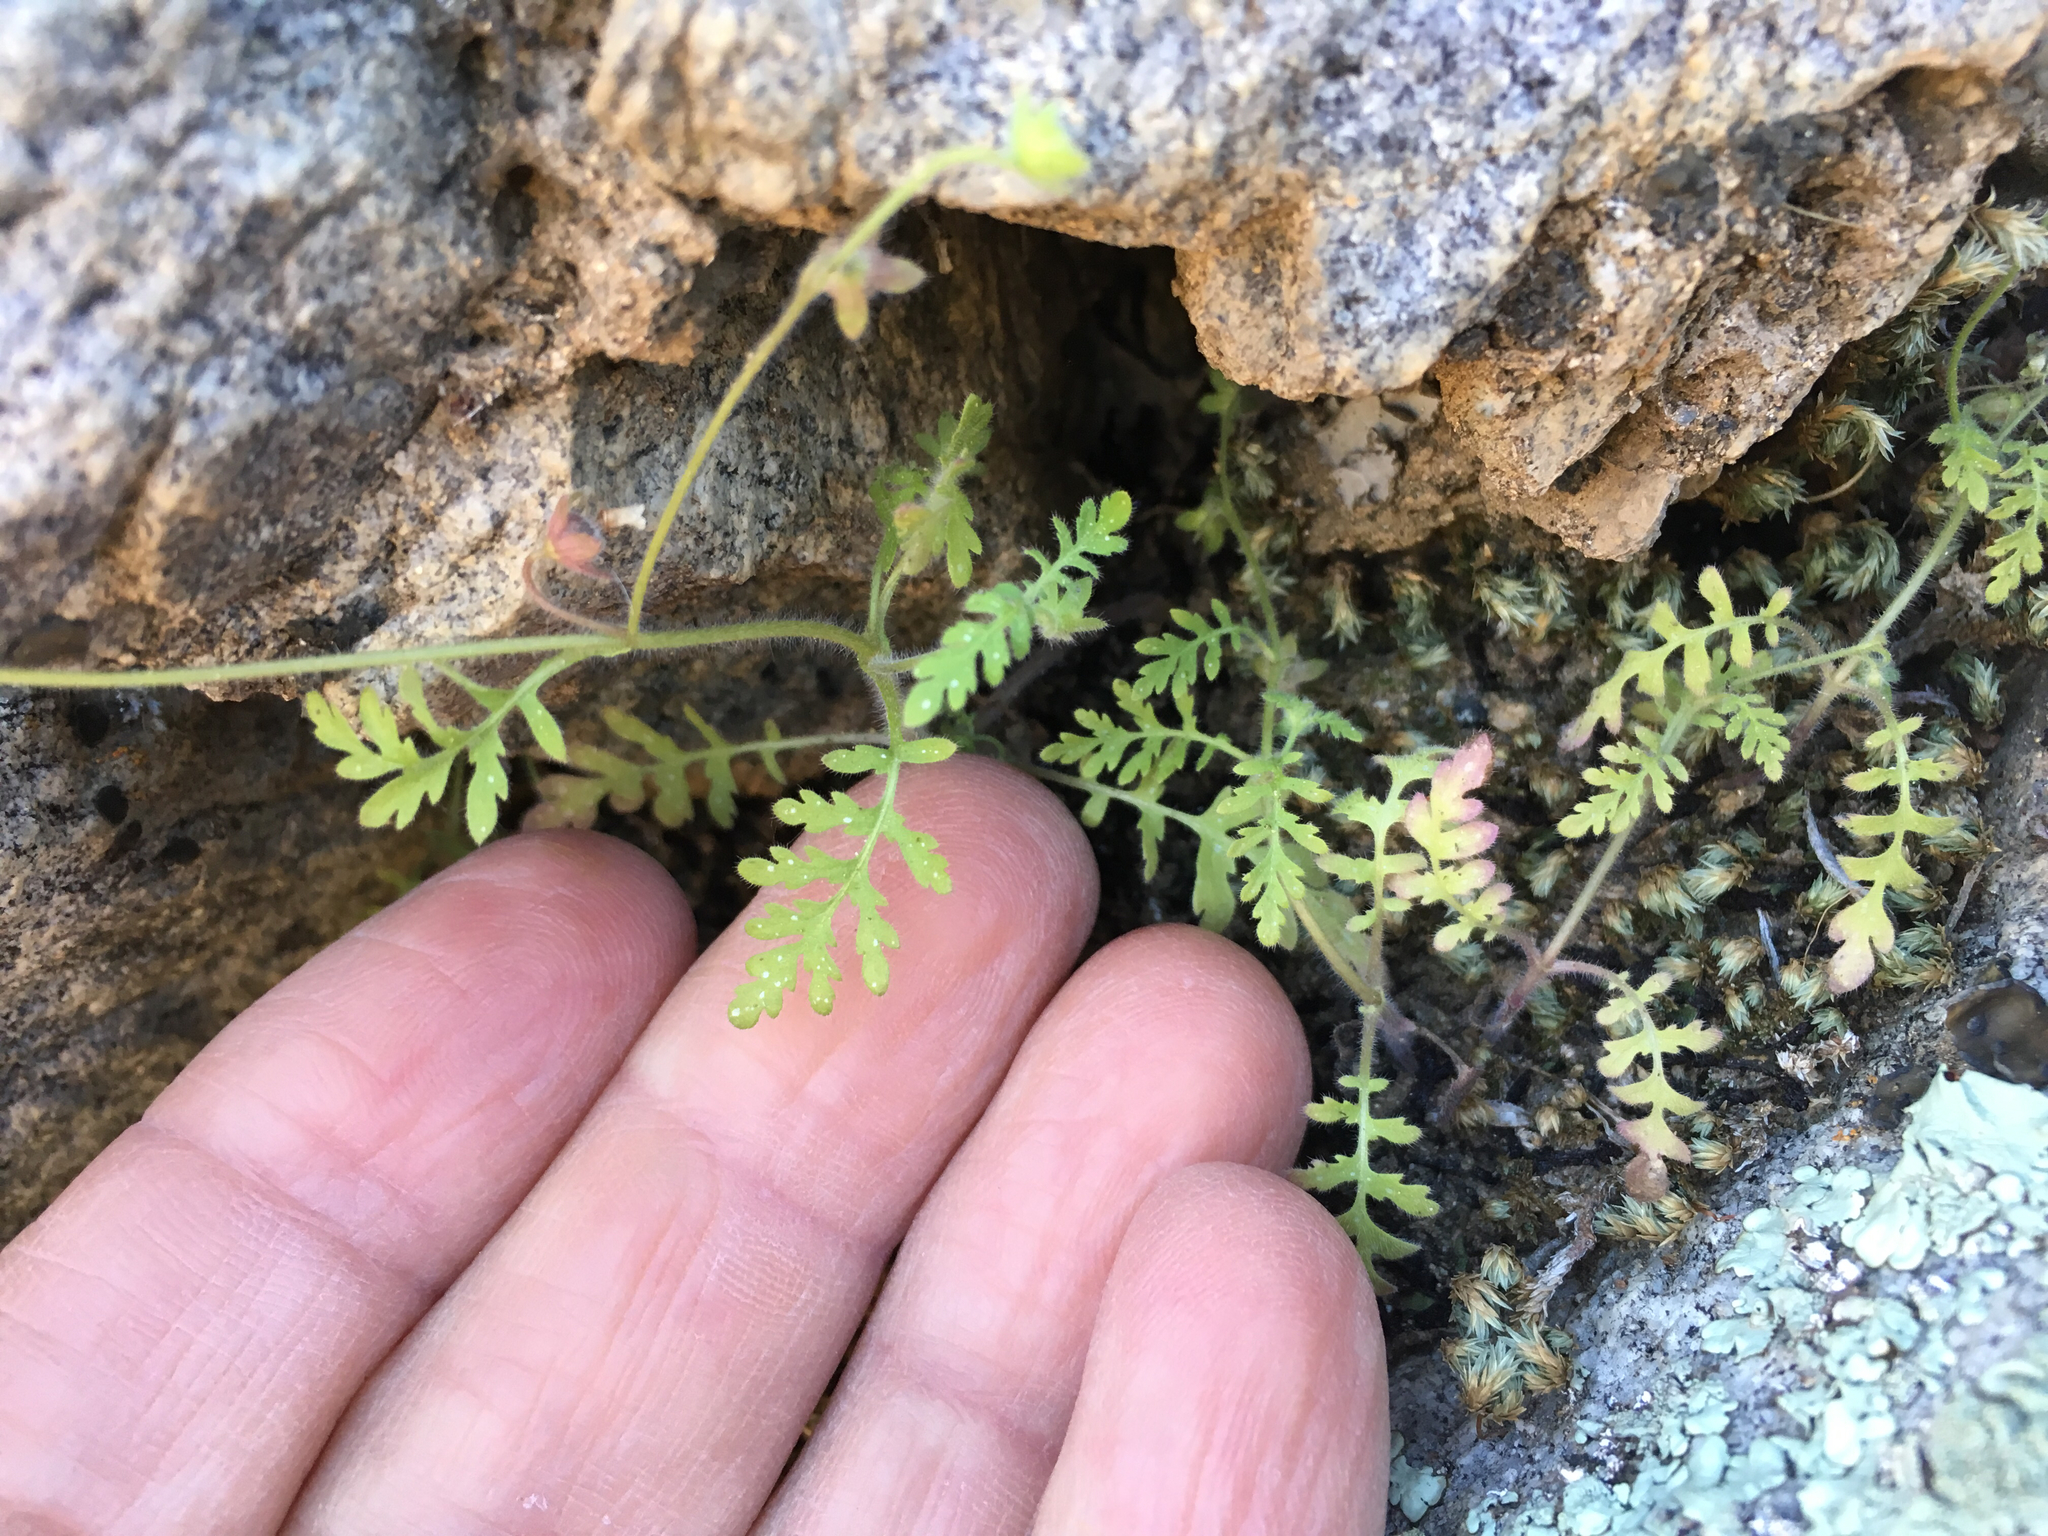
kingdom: Plantae
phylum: Tracheophyta
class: Magnoliopsida
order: Boraginales
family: Hydrophyllaceae
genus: Eucrypta
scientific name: Eucrypta chrysanthemifolia
